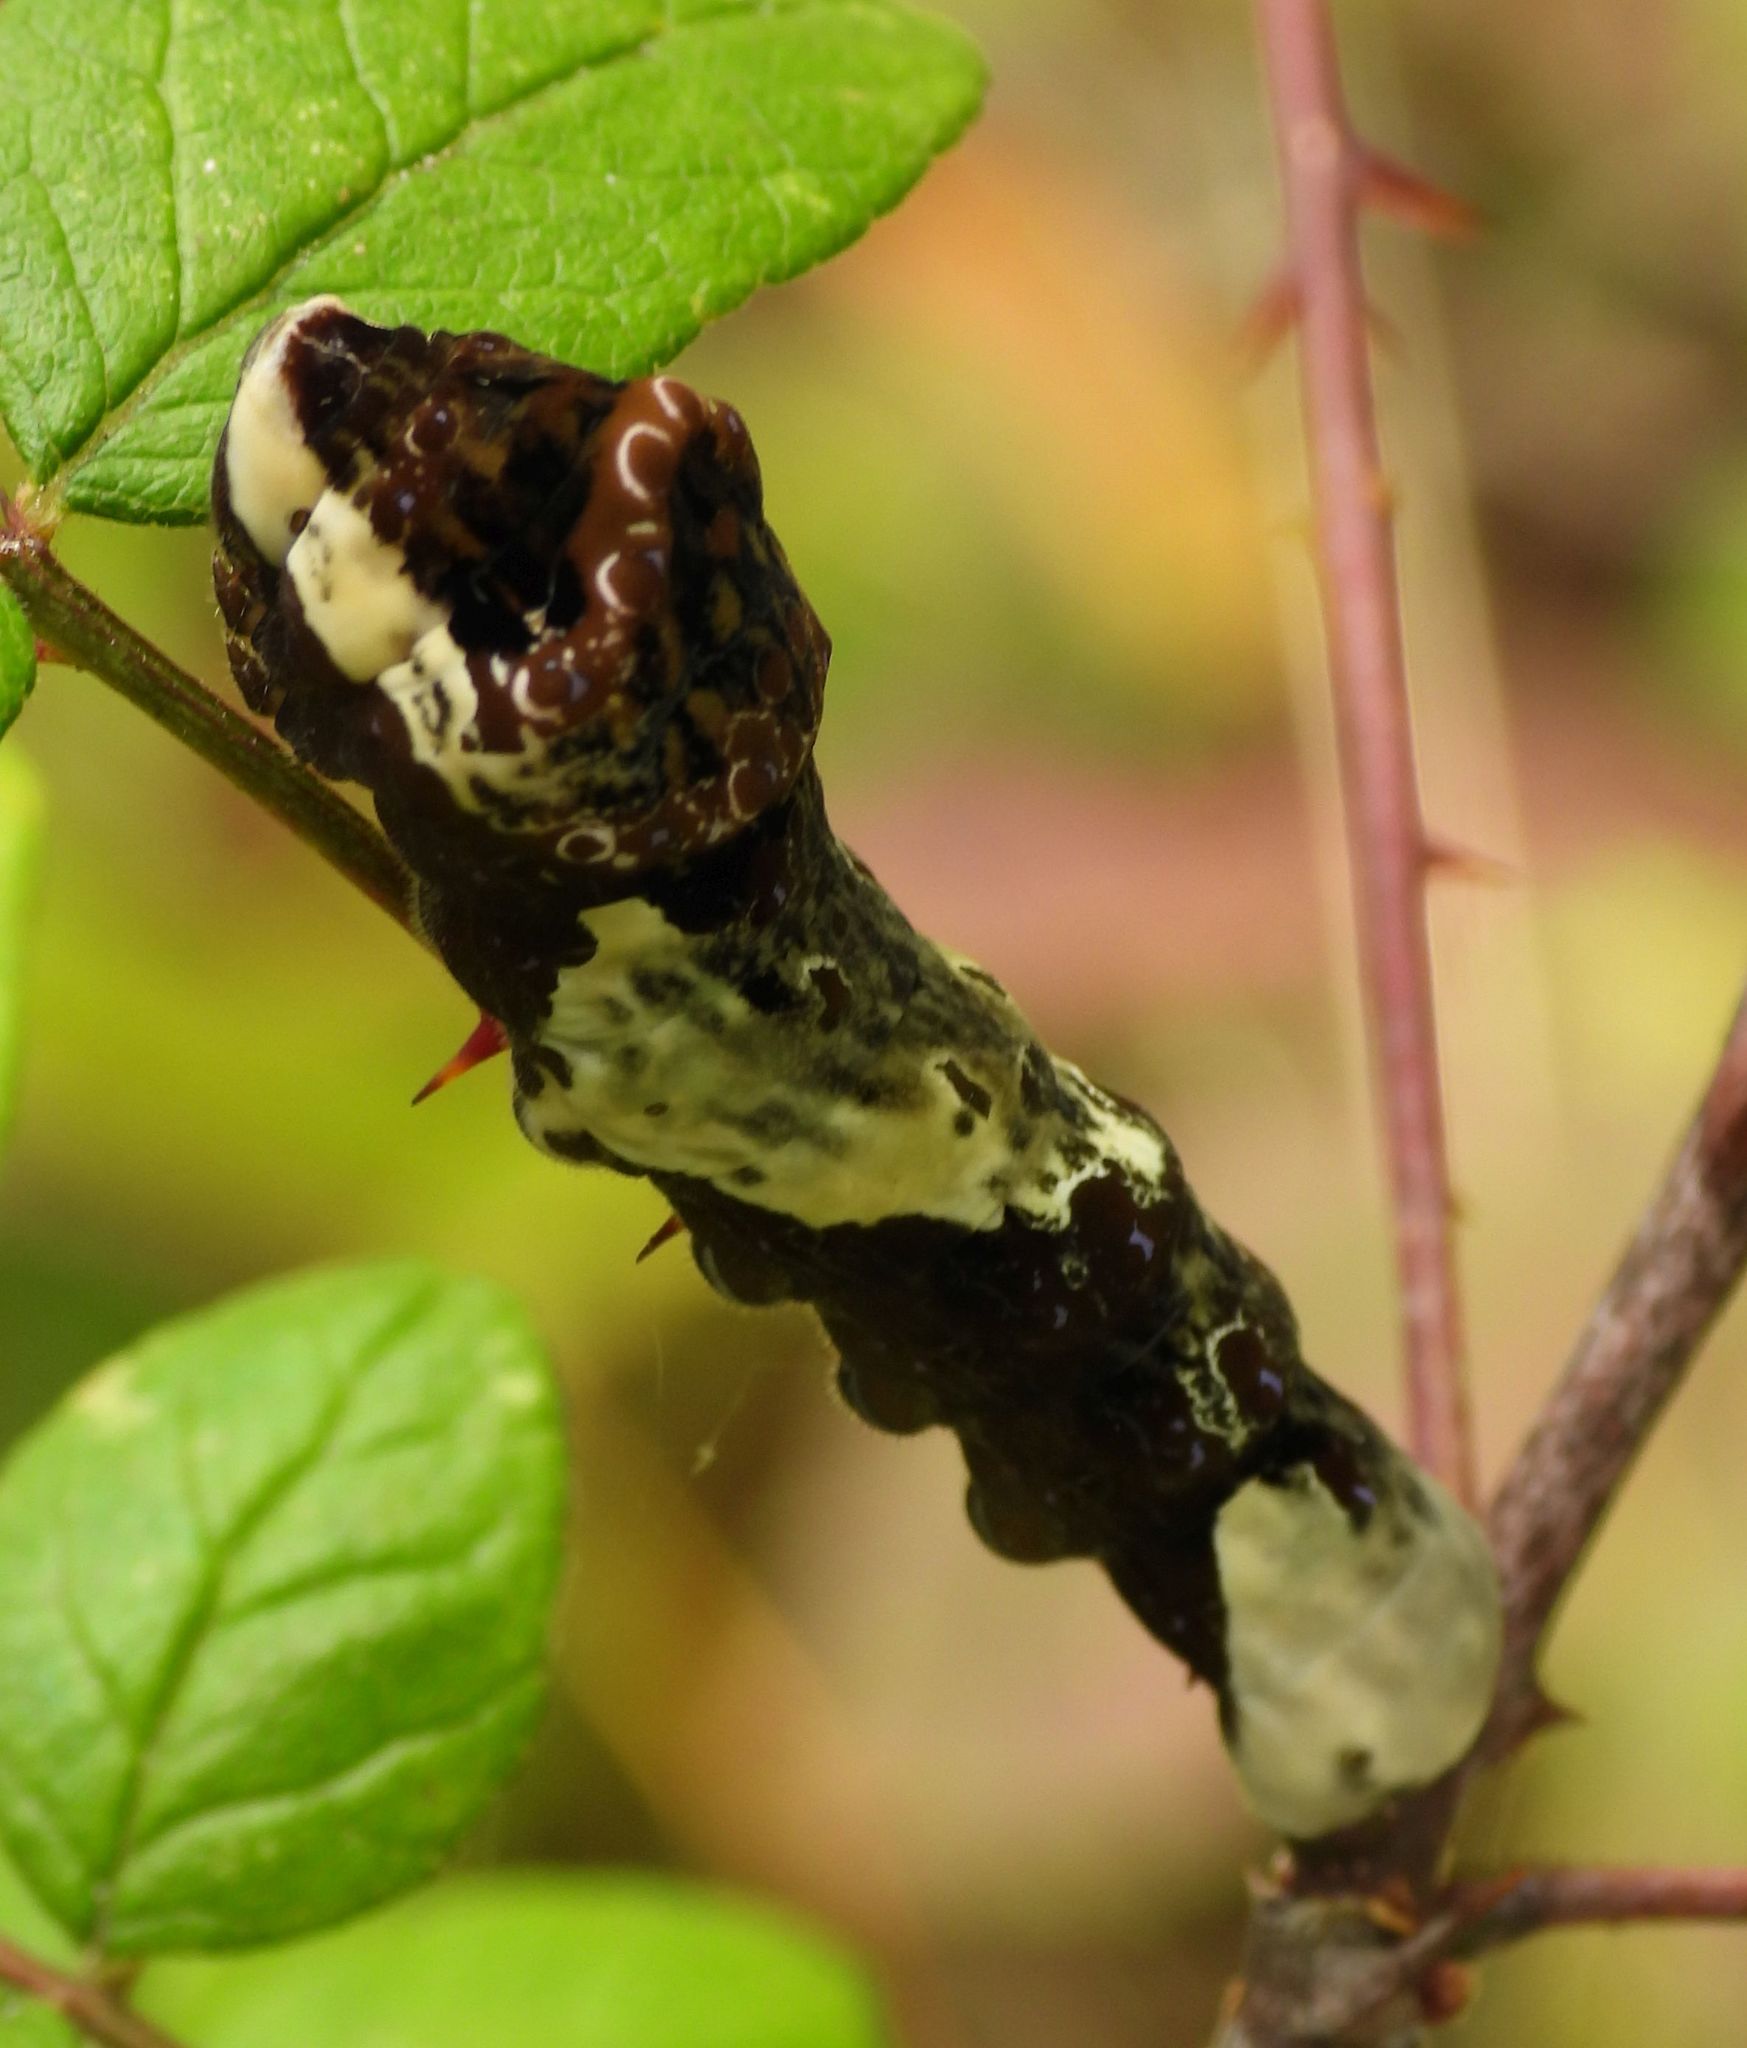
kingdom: Animalia
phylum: Arthropoda
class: Insecta
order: Lepidoptera
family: Papilionidae
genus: Papilio
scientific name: Papilio cresphontes
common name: Giant swallowtail
